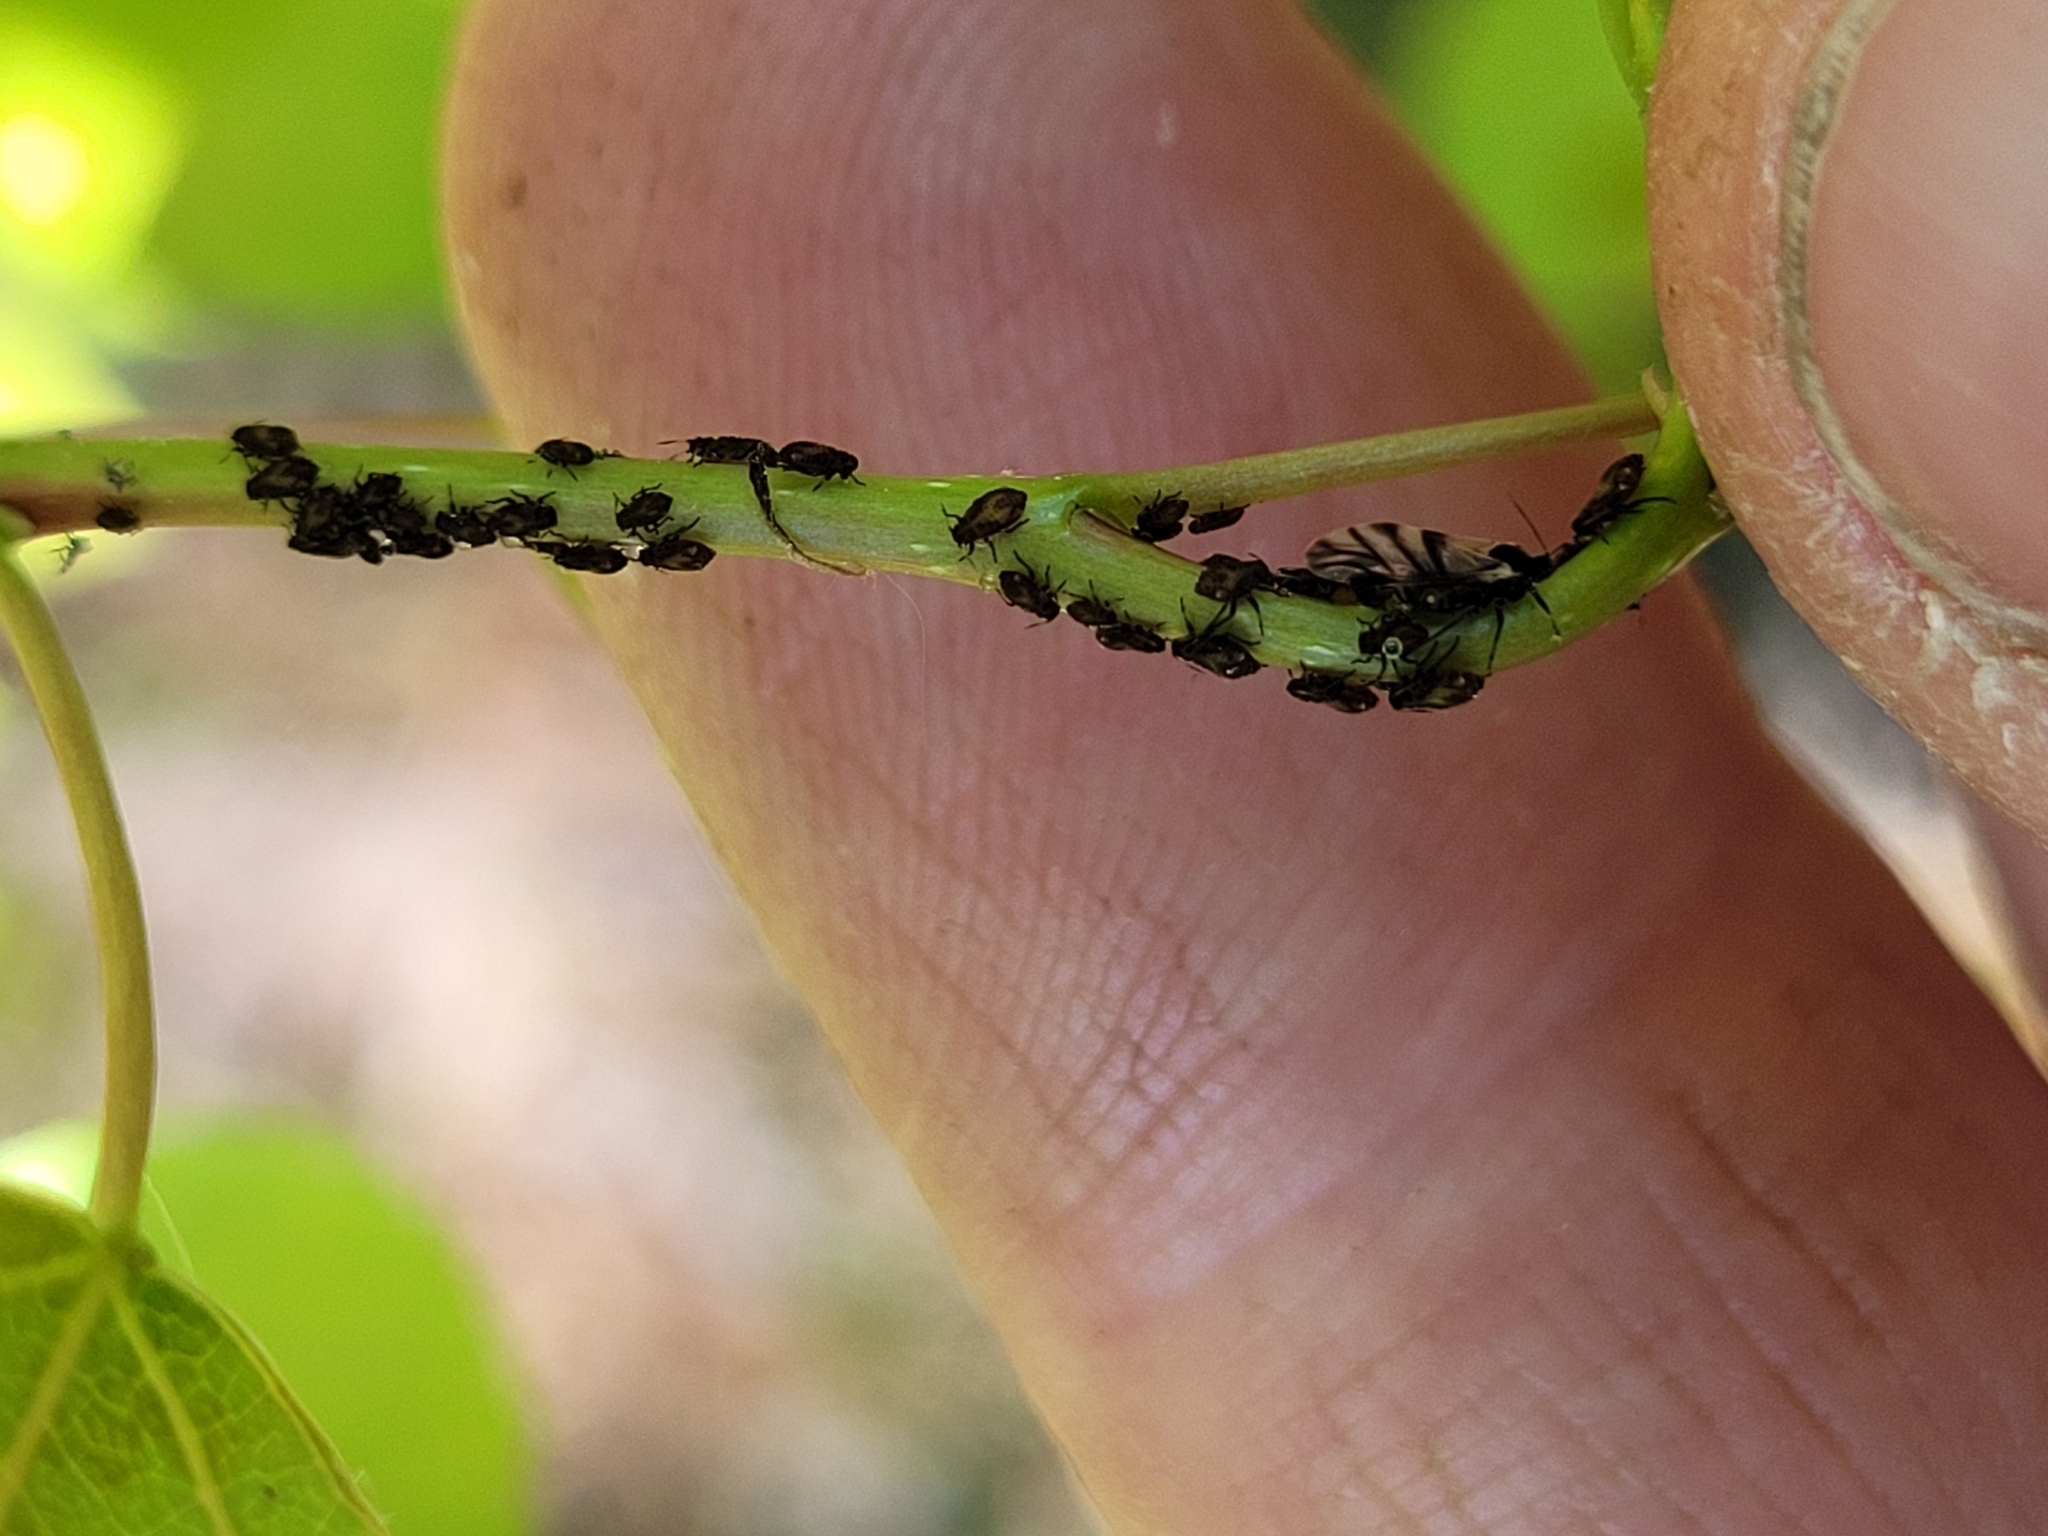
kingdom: Animalia
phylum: Arthropoda
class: Insecta
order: Hemiptera
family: Aphididae
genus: Chaitophorus
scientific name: Chaitophorus populicola
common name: Smokywinged poplar aphid
